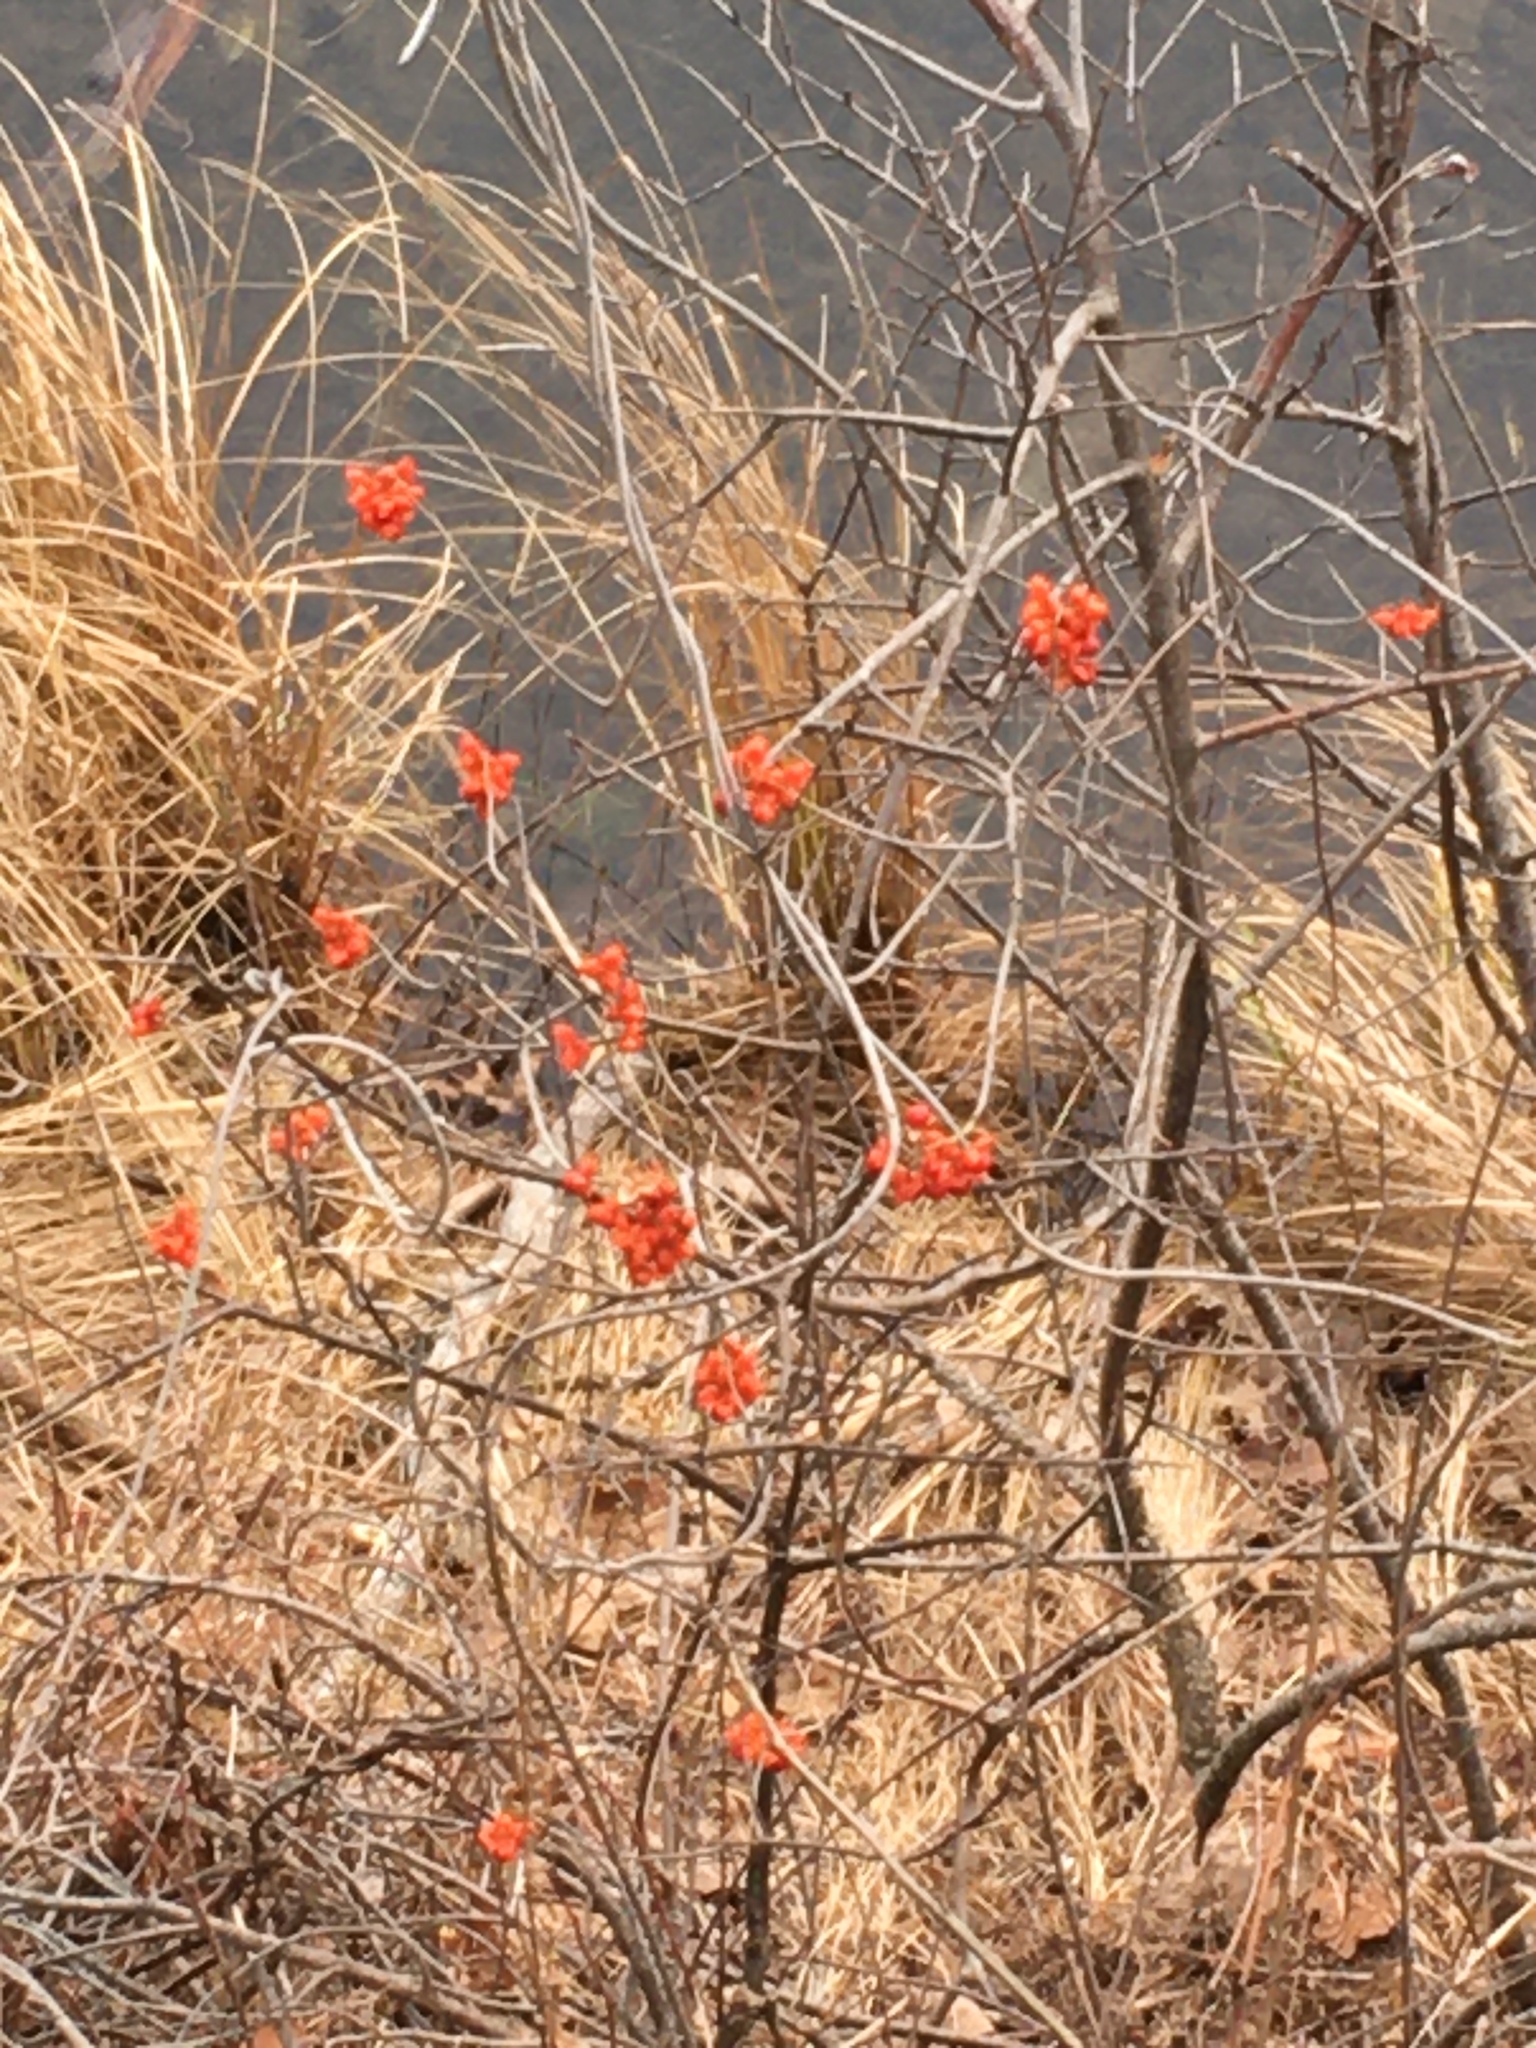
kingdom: Plantae
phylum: Tracheophyta
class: Magnoliopsida
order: Celastrales
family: Celastraceae
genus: Celastrus
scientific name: Celastrus scandens
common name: American bittersweet
